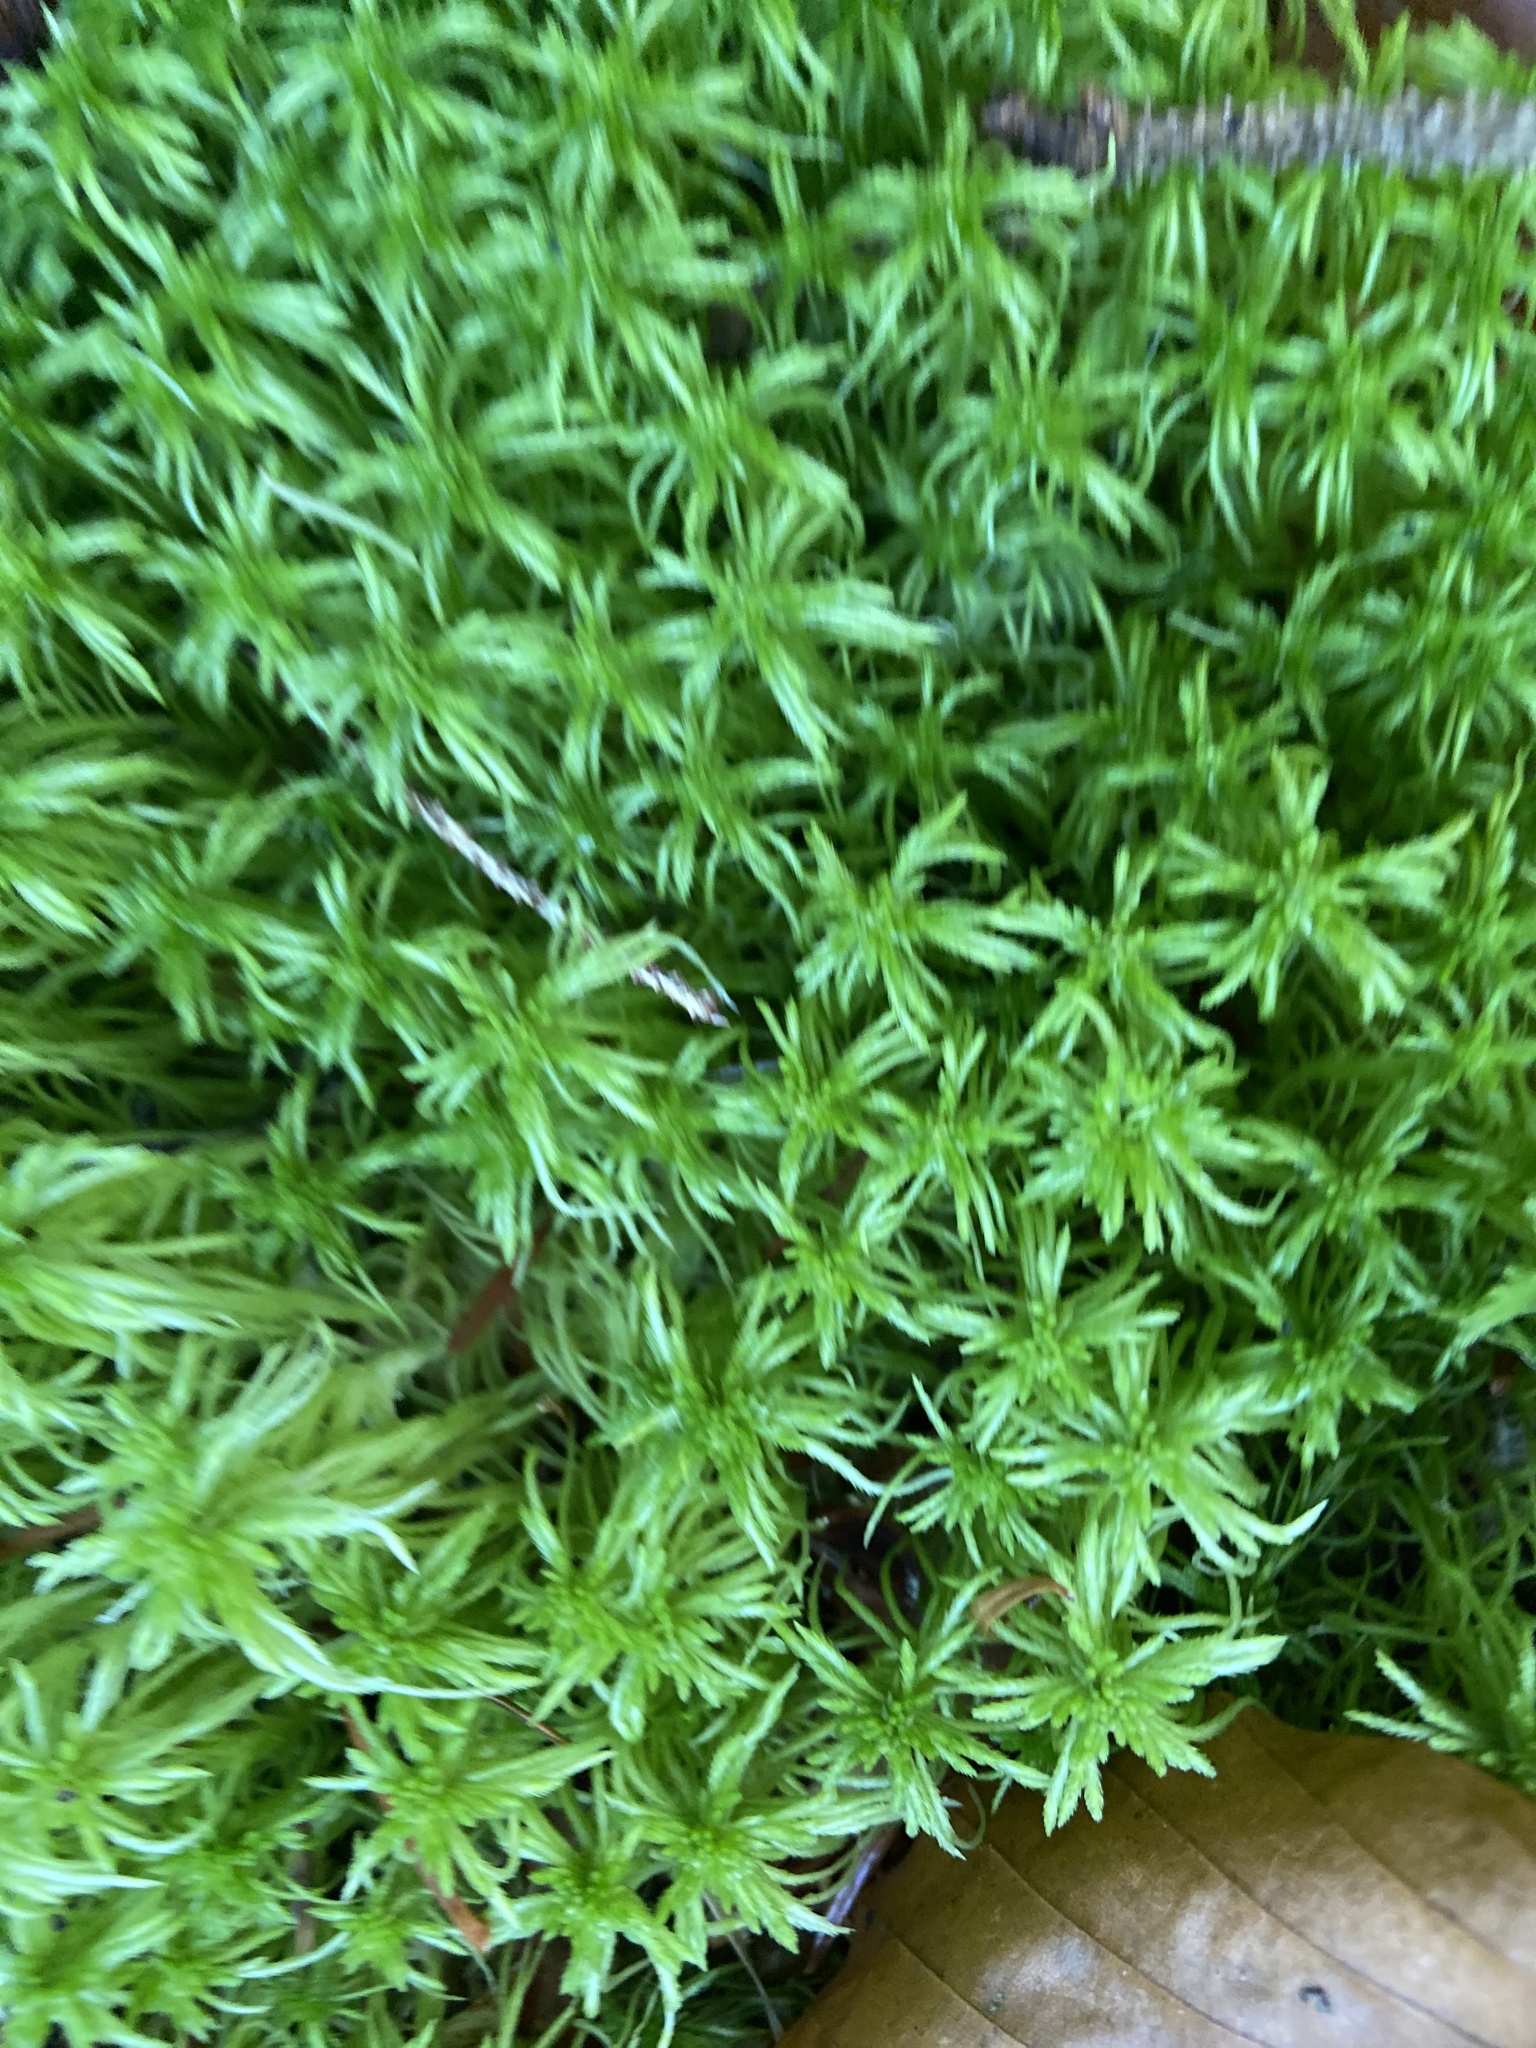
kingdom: Plantae
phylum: Bryophyta
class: Sphagnopsida
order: Sphagnales
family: Sphagnaceae
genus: Sphagnum
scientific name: Sphagnum girgensohnii
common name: Girgensohn's peat moss
